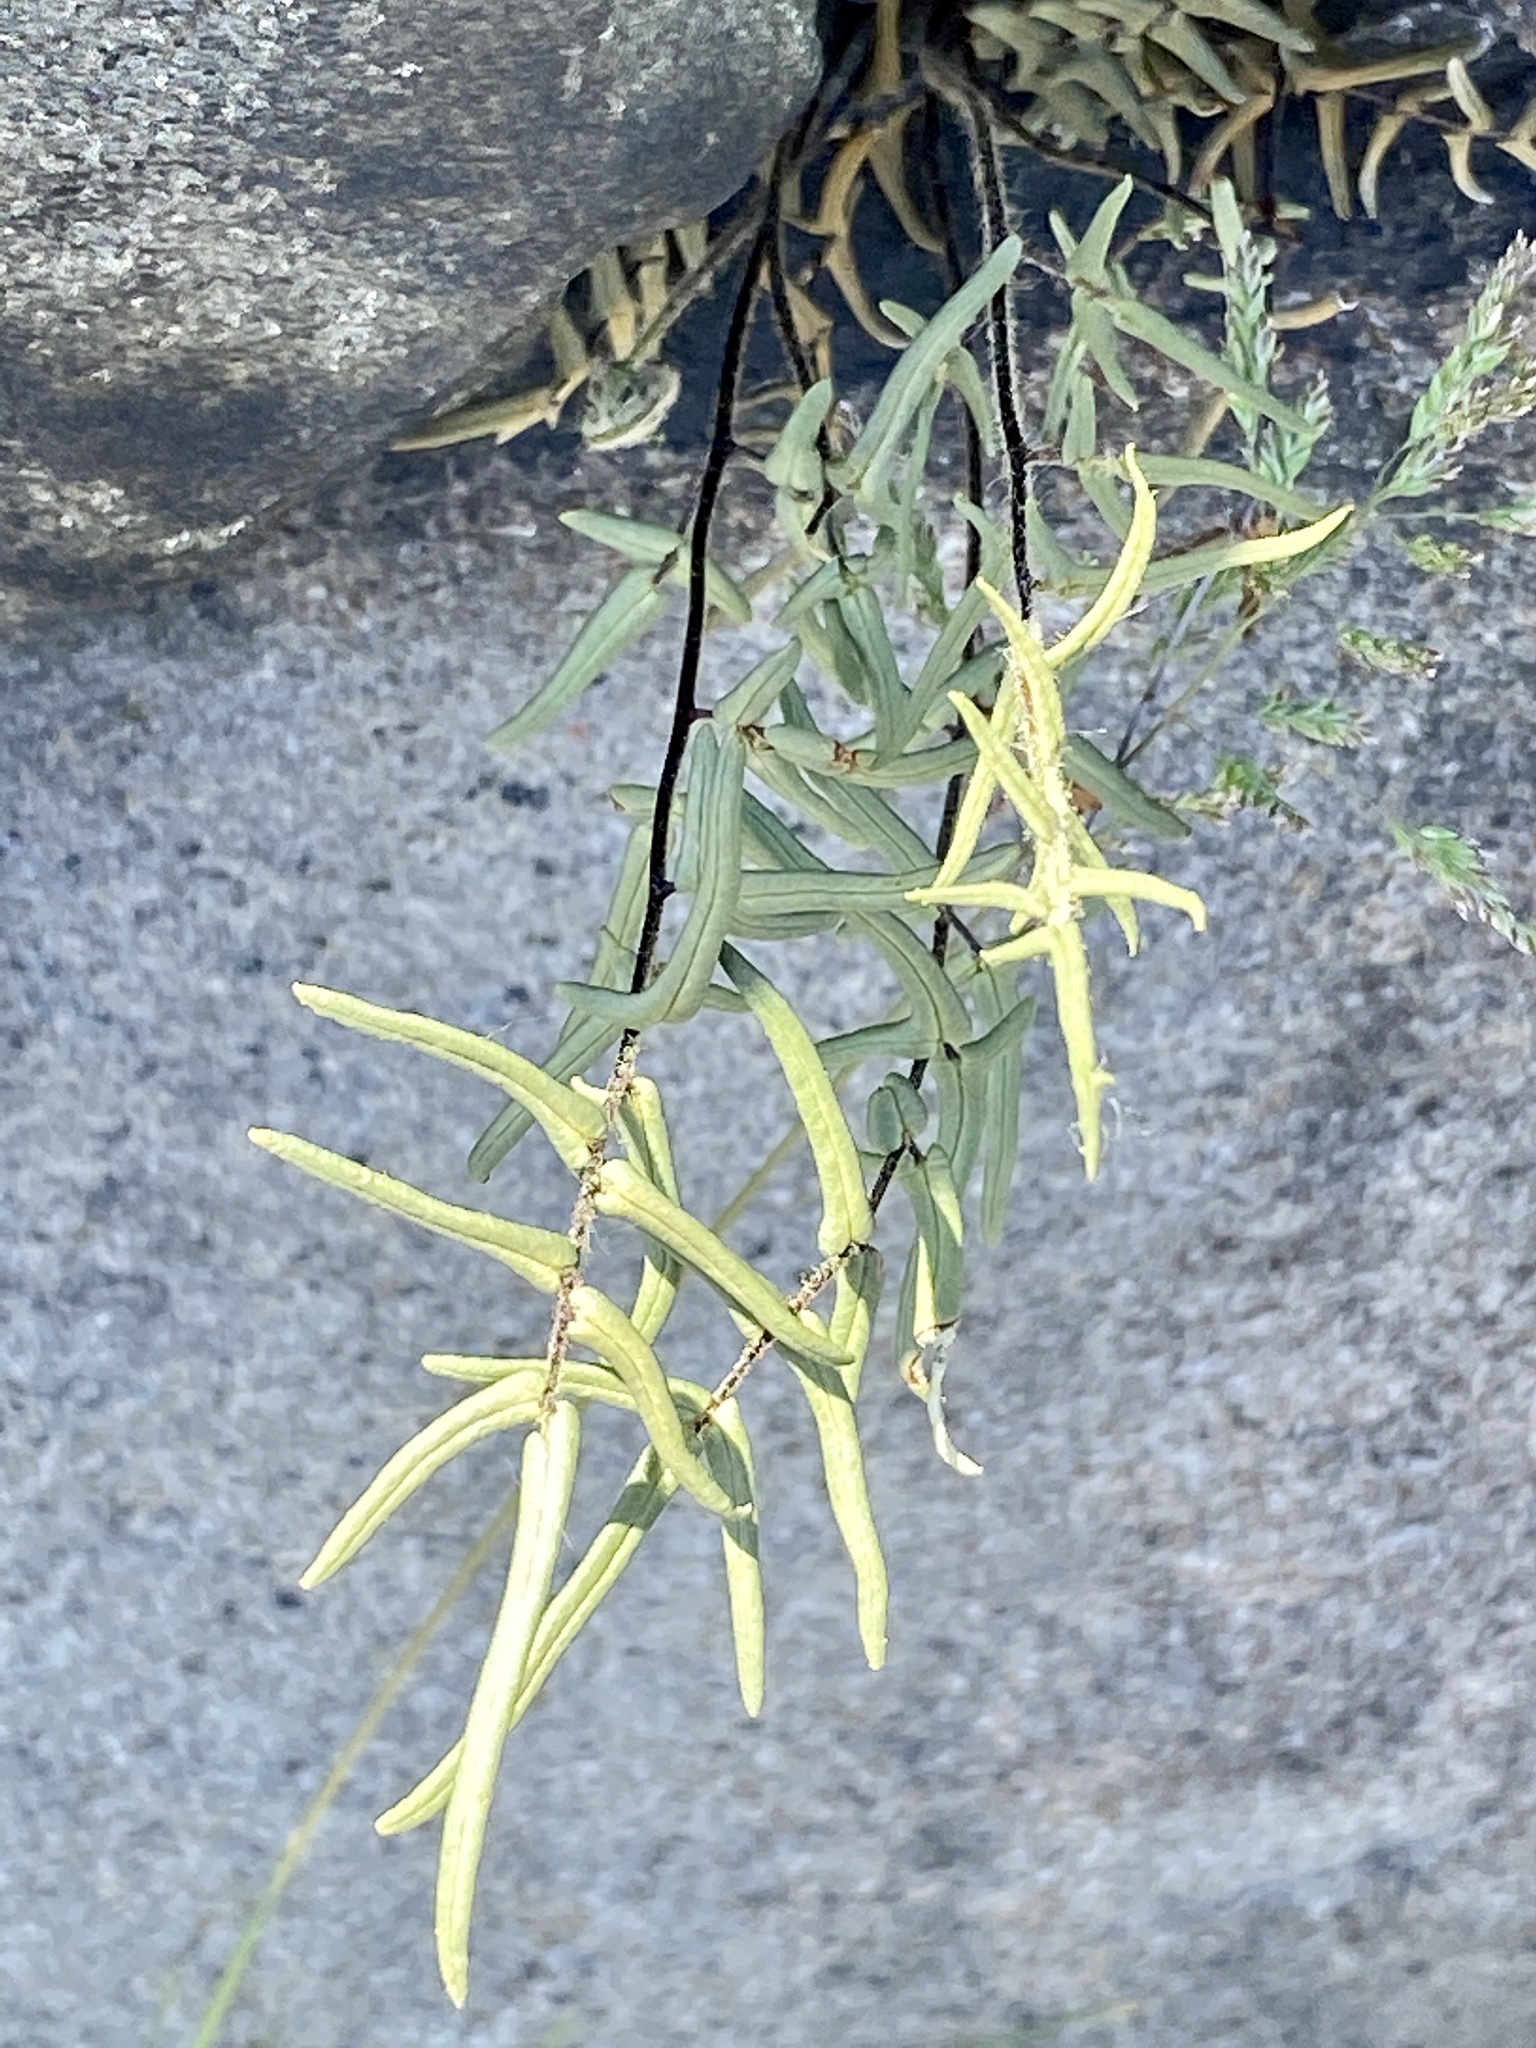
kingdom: Plantae
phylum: Tracheophyta
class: Polypodiopsida
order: Polypodiales
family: Pteridaceae
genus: Pellaea
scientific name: Pellaea atropurpurea
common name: Hairy cliffbrake
